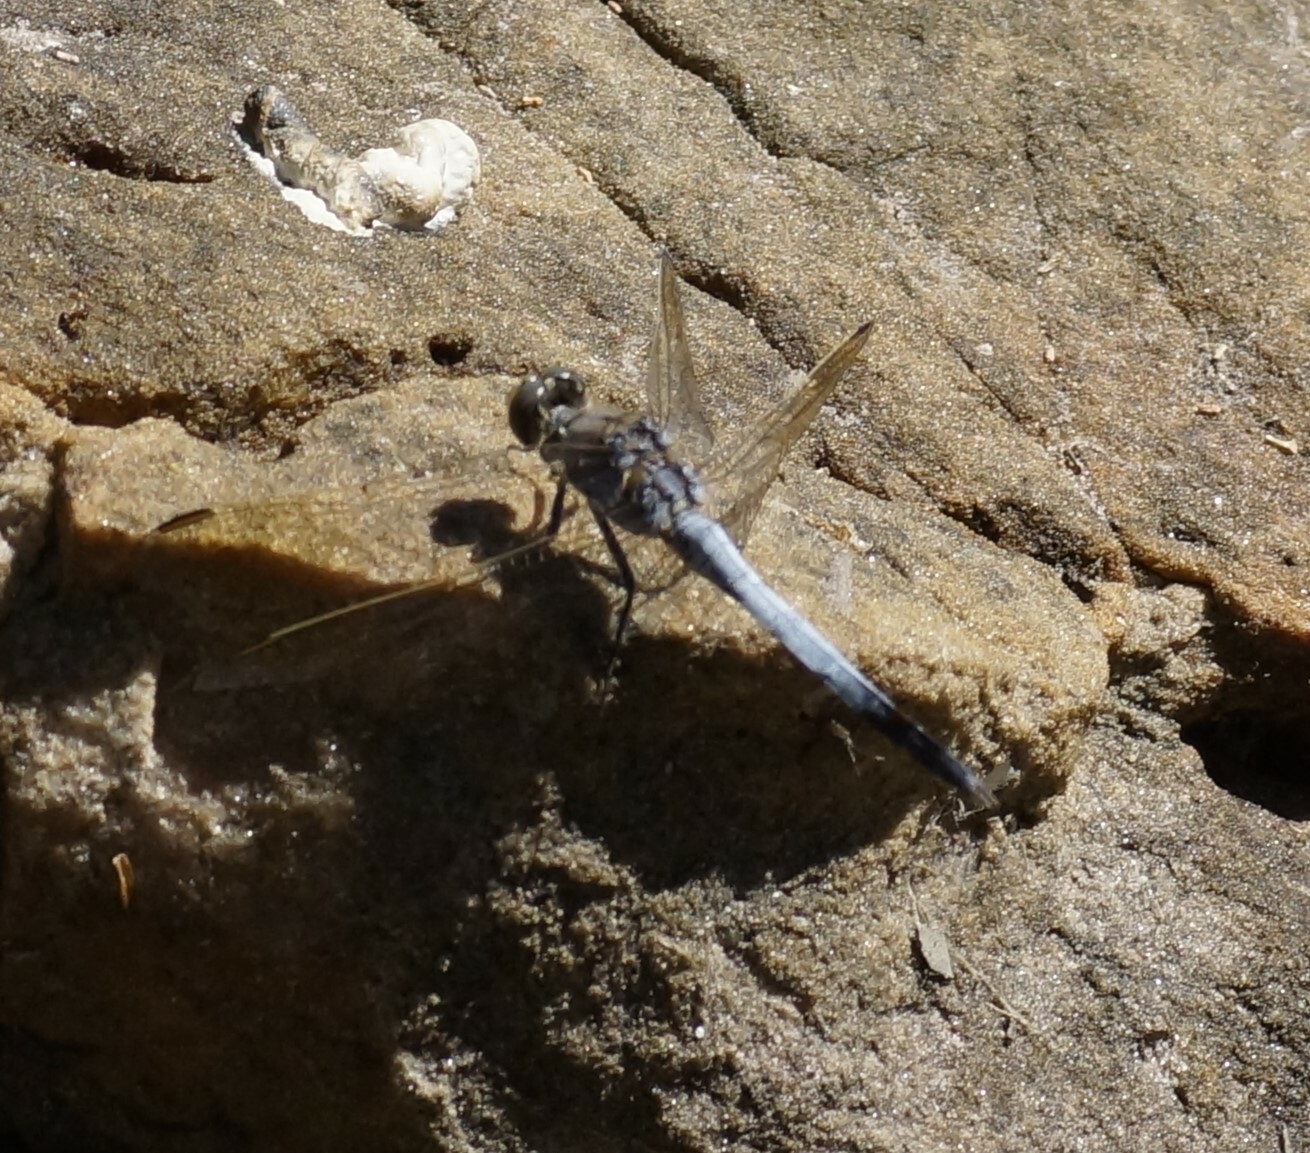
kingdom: Animalia
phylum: Arthropoda
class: Insecta
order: Odonata
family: Libellulidae
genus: Orthetrum
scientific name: Orthetrum caledonicum
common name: Blue skimmer
